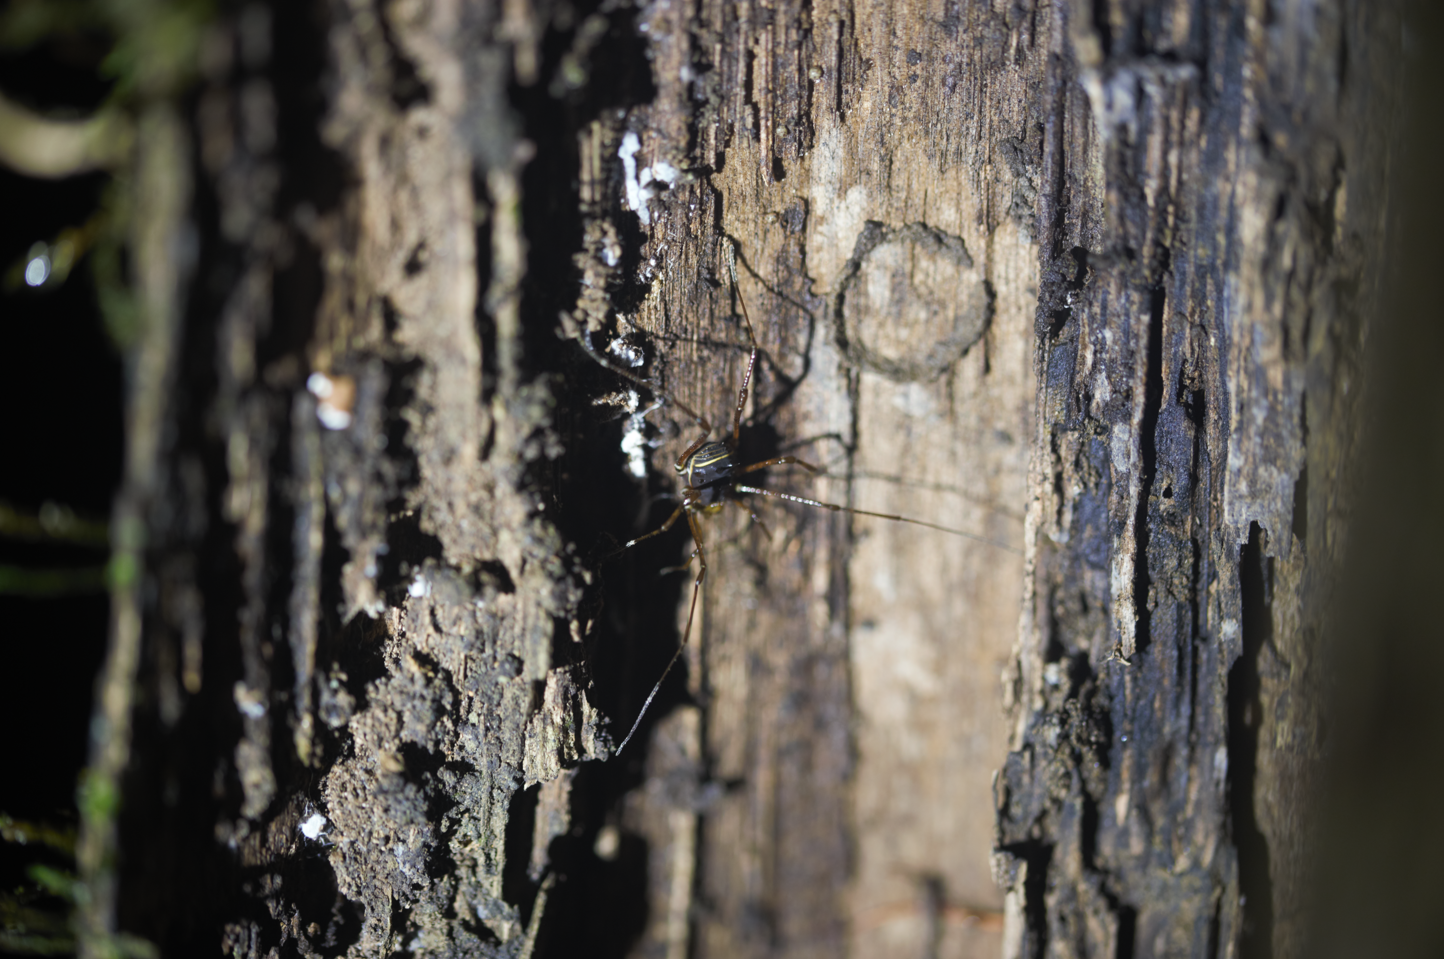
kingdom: Animalia
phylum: Arthropoda
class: Arachnida
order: Opiliones
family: Manaosbiidae
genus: Rhopalocranaus
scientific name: Rhopalocranaus marginatus
